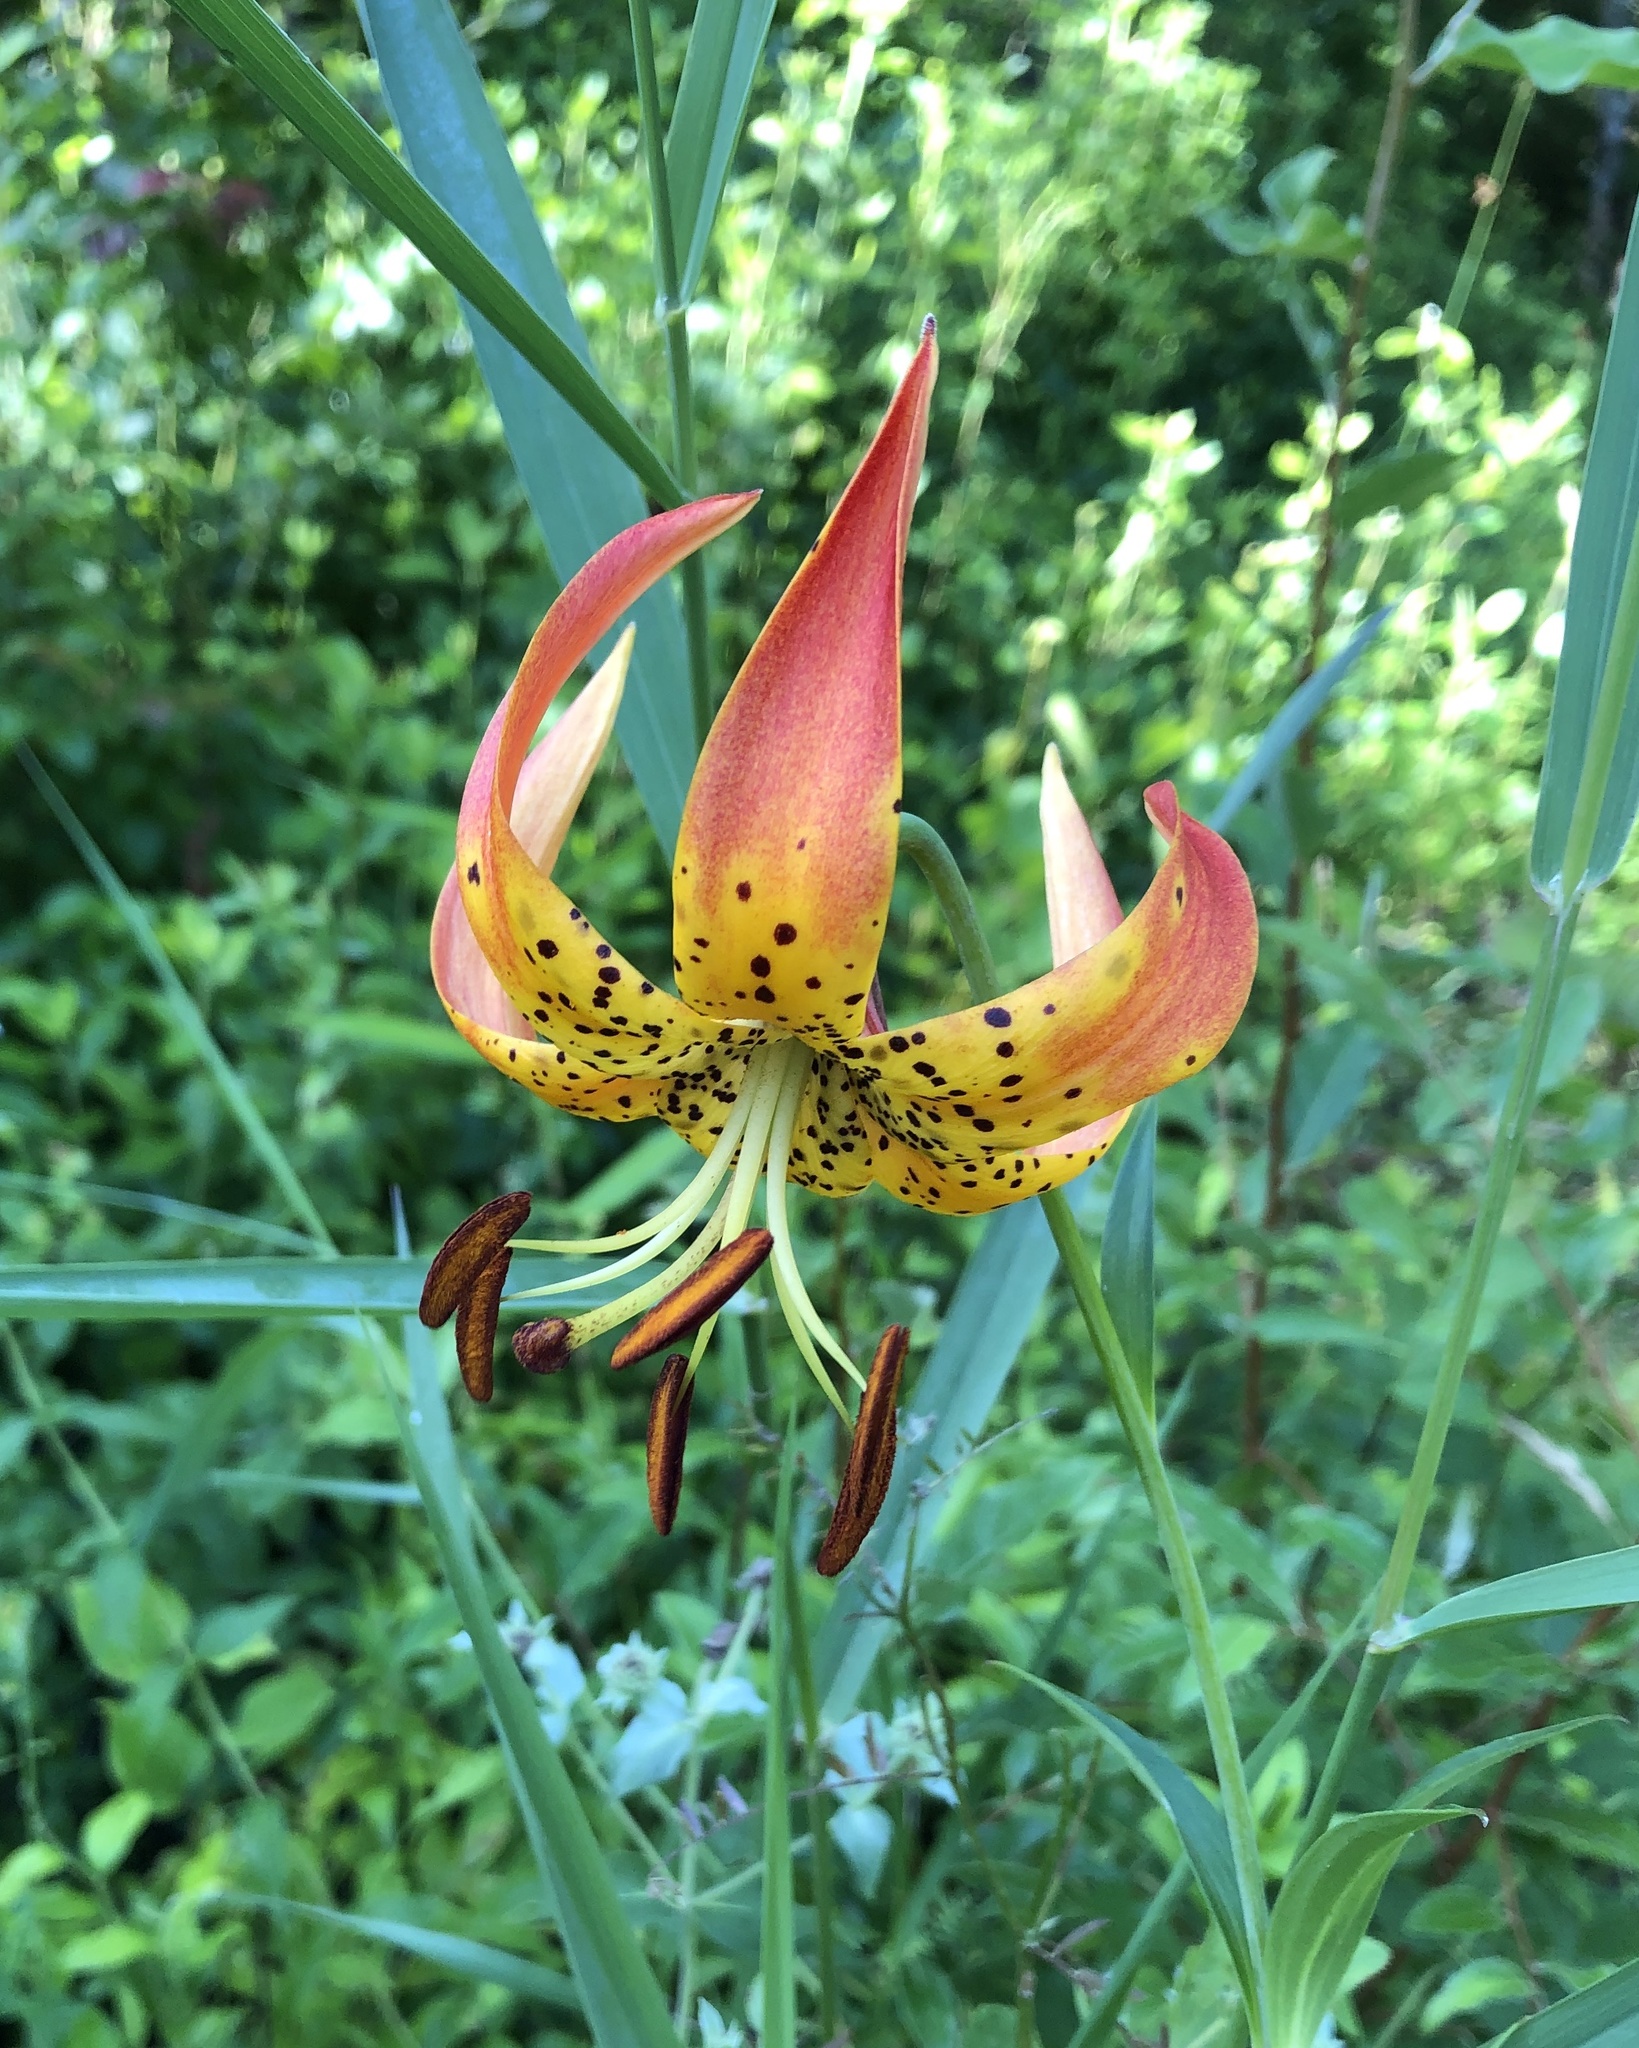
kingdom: Plantae
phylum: Tracheophyta
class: Liliopsida
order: Liliales
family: Liliaceae
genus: Lilium
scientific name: Lilium superbum
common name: American turk's-cap lily
